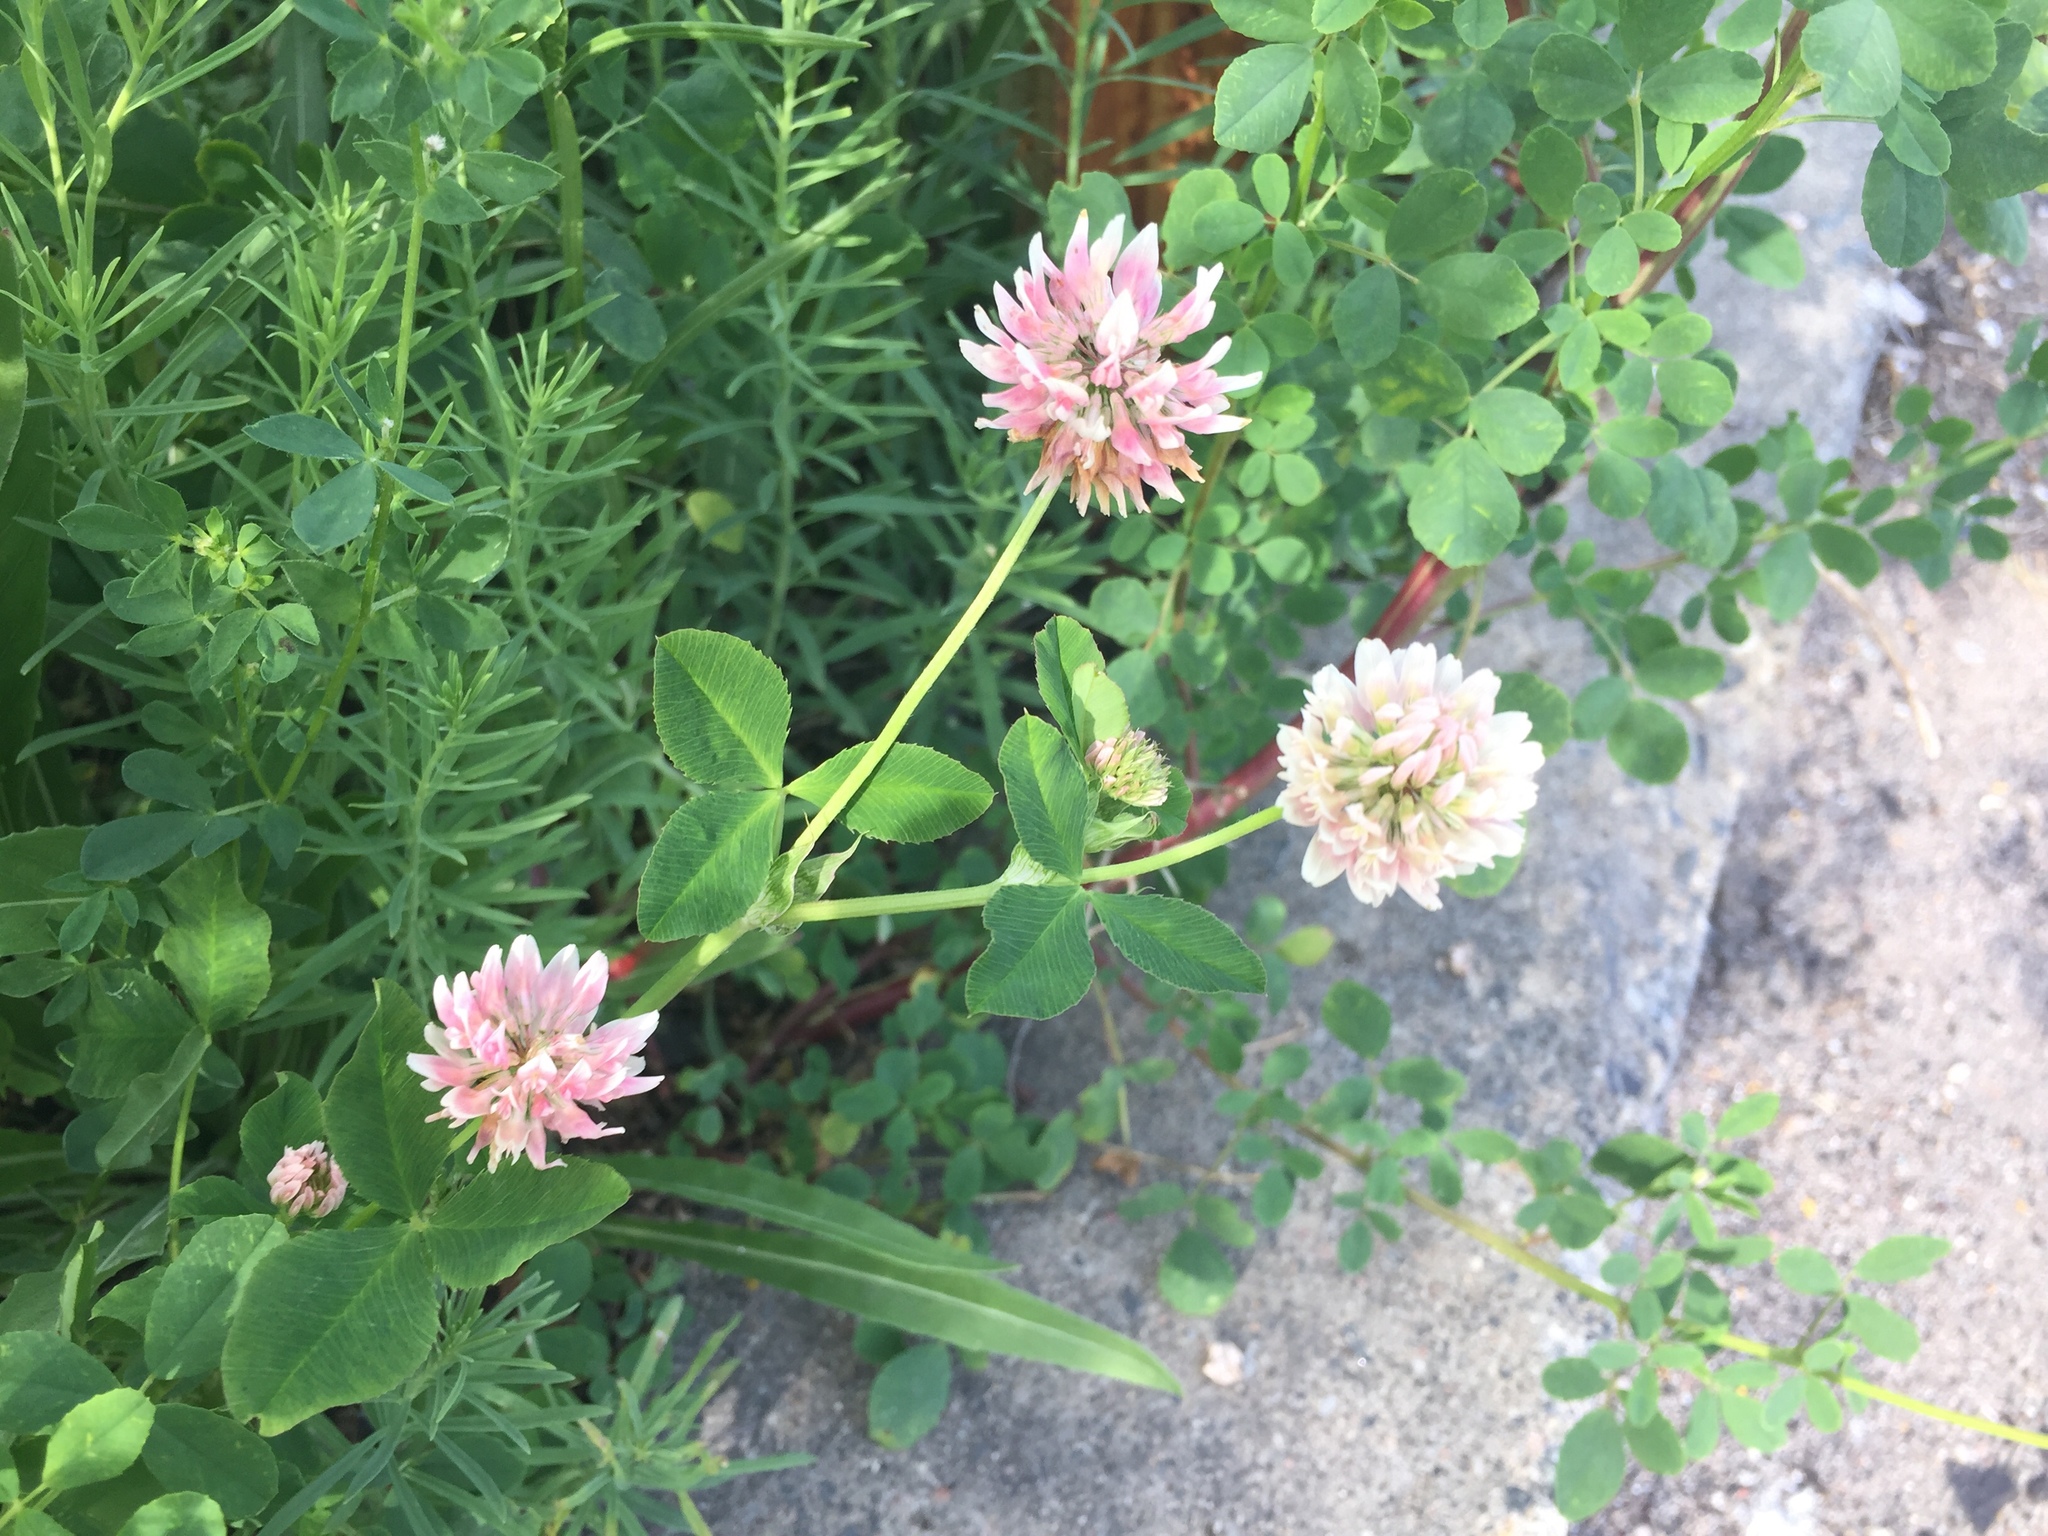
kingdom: Plantae
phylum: Tracheophyta
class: Magnoliopsida
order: Fabales
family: Fabaceae
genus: Trifolium
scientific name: Trifolium hybridum
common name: Alsike clover
